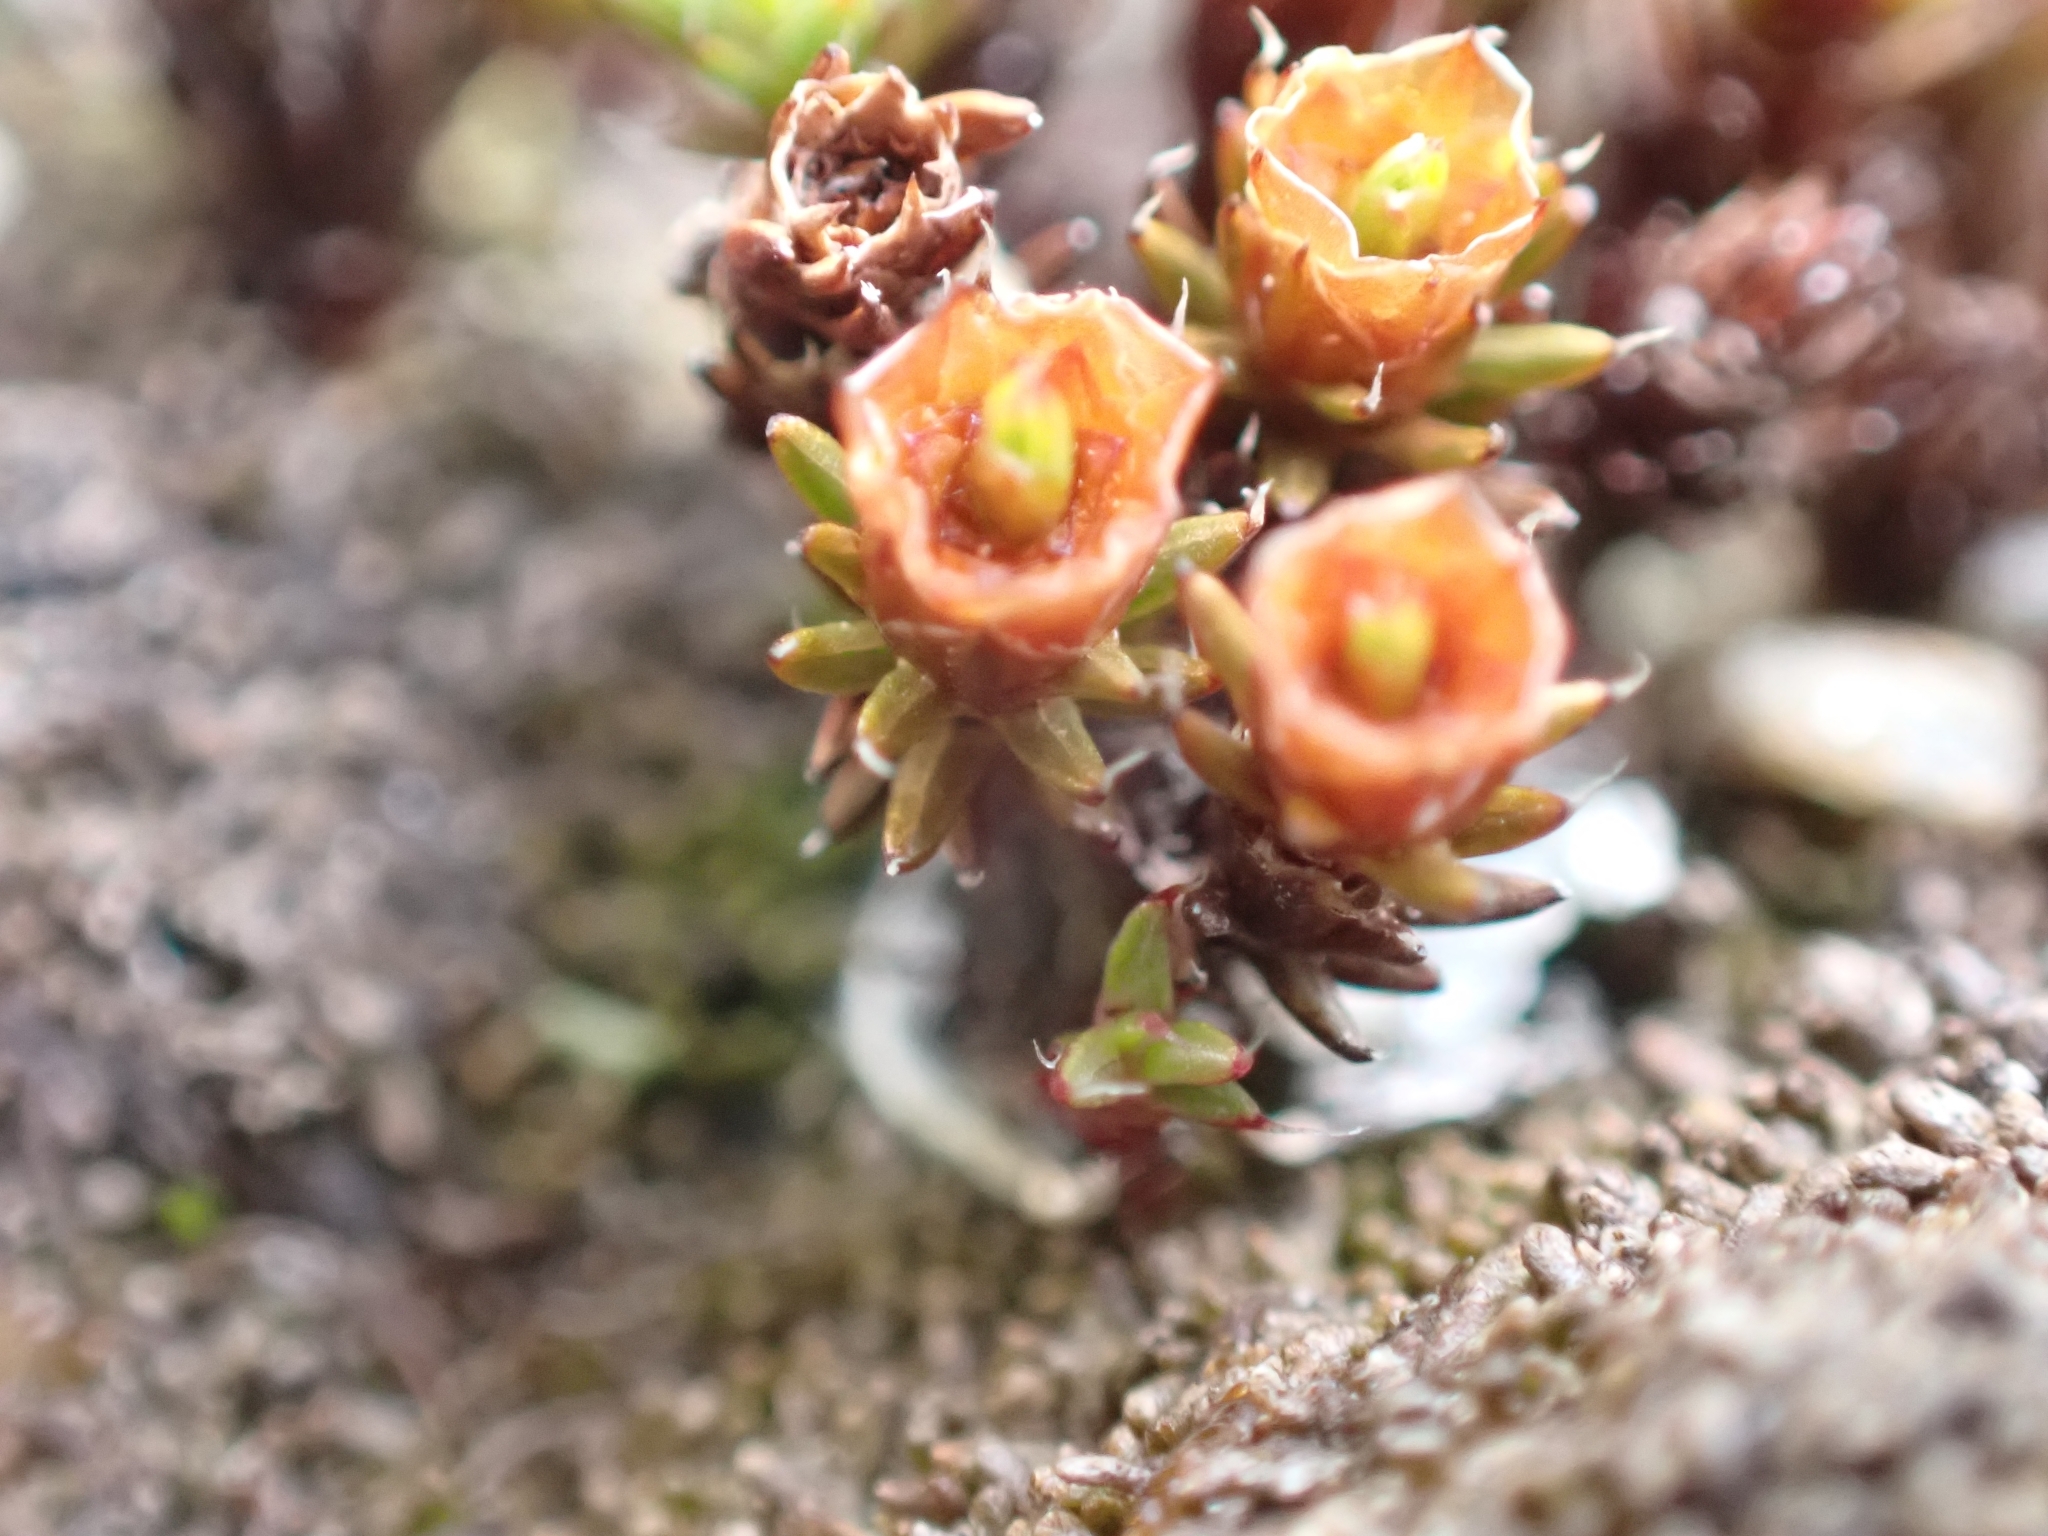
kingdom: Plantae
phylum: Bryophyta
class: Polytrichopsida
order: Polytrichales
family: Polytrichaceae
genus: Polytrichum
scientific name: Polytrichum piliferum
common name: Bristly haircap
